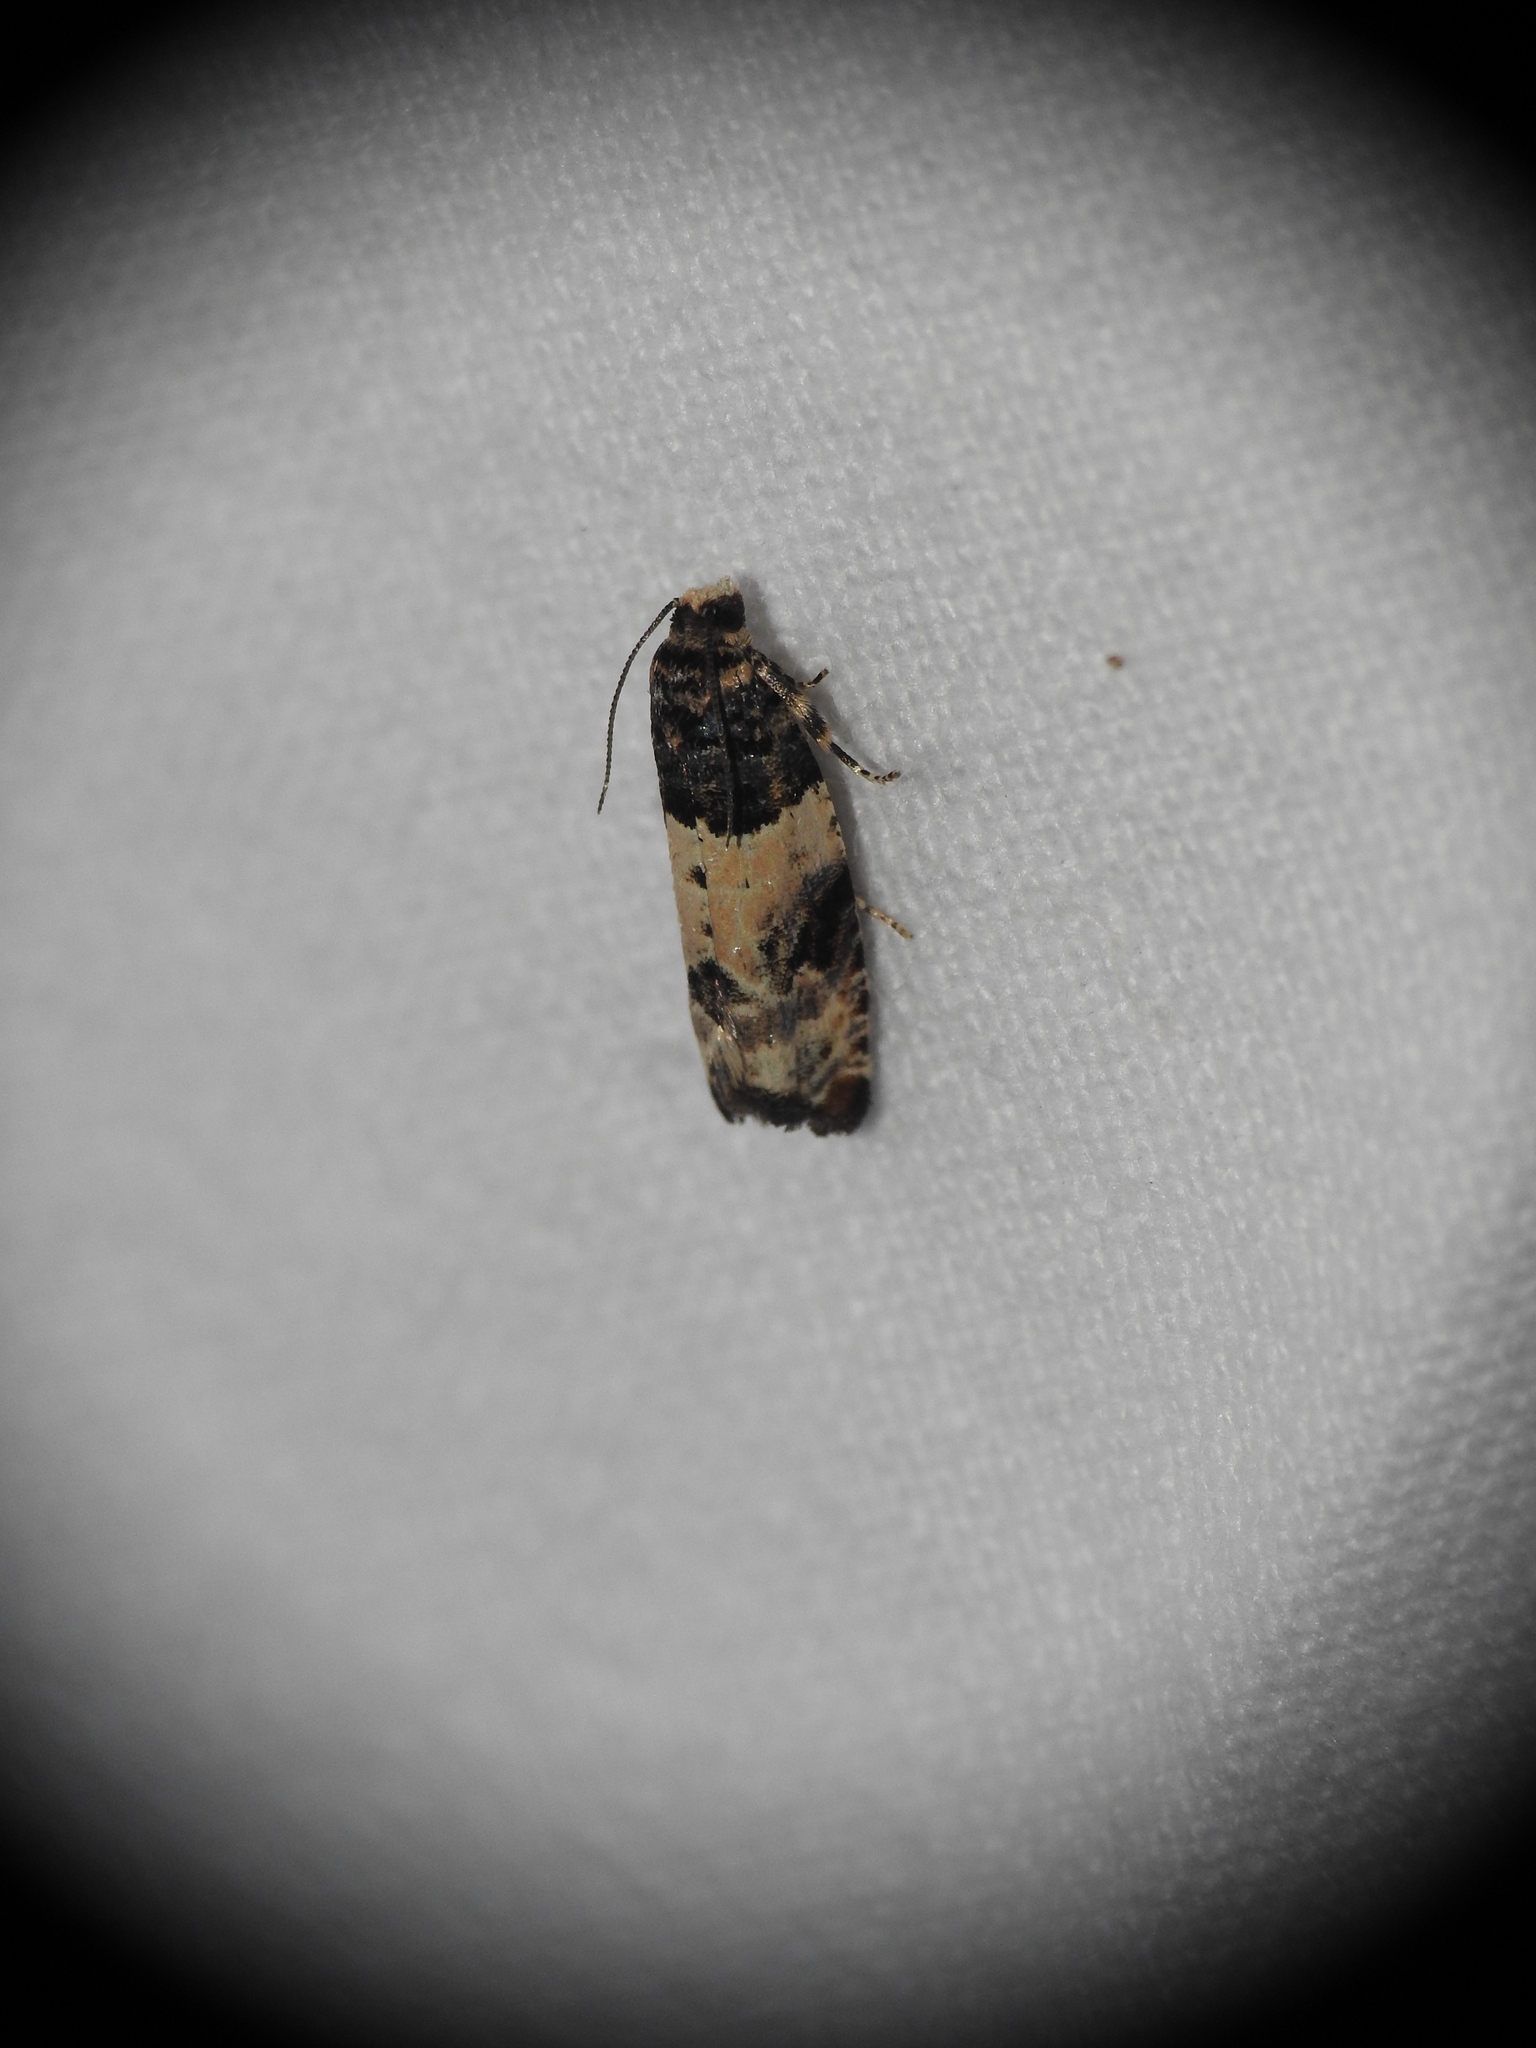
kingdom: Animalia
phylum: Arthropoda
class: Insecta
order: Lepidoptera
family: Tortricidae
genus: Gypsonoma
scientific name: Gypsonoma sociana
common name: White cloaked shoot
